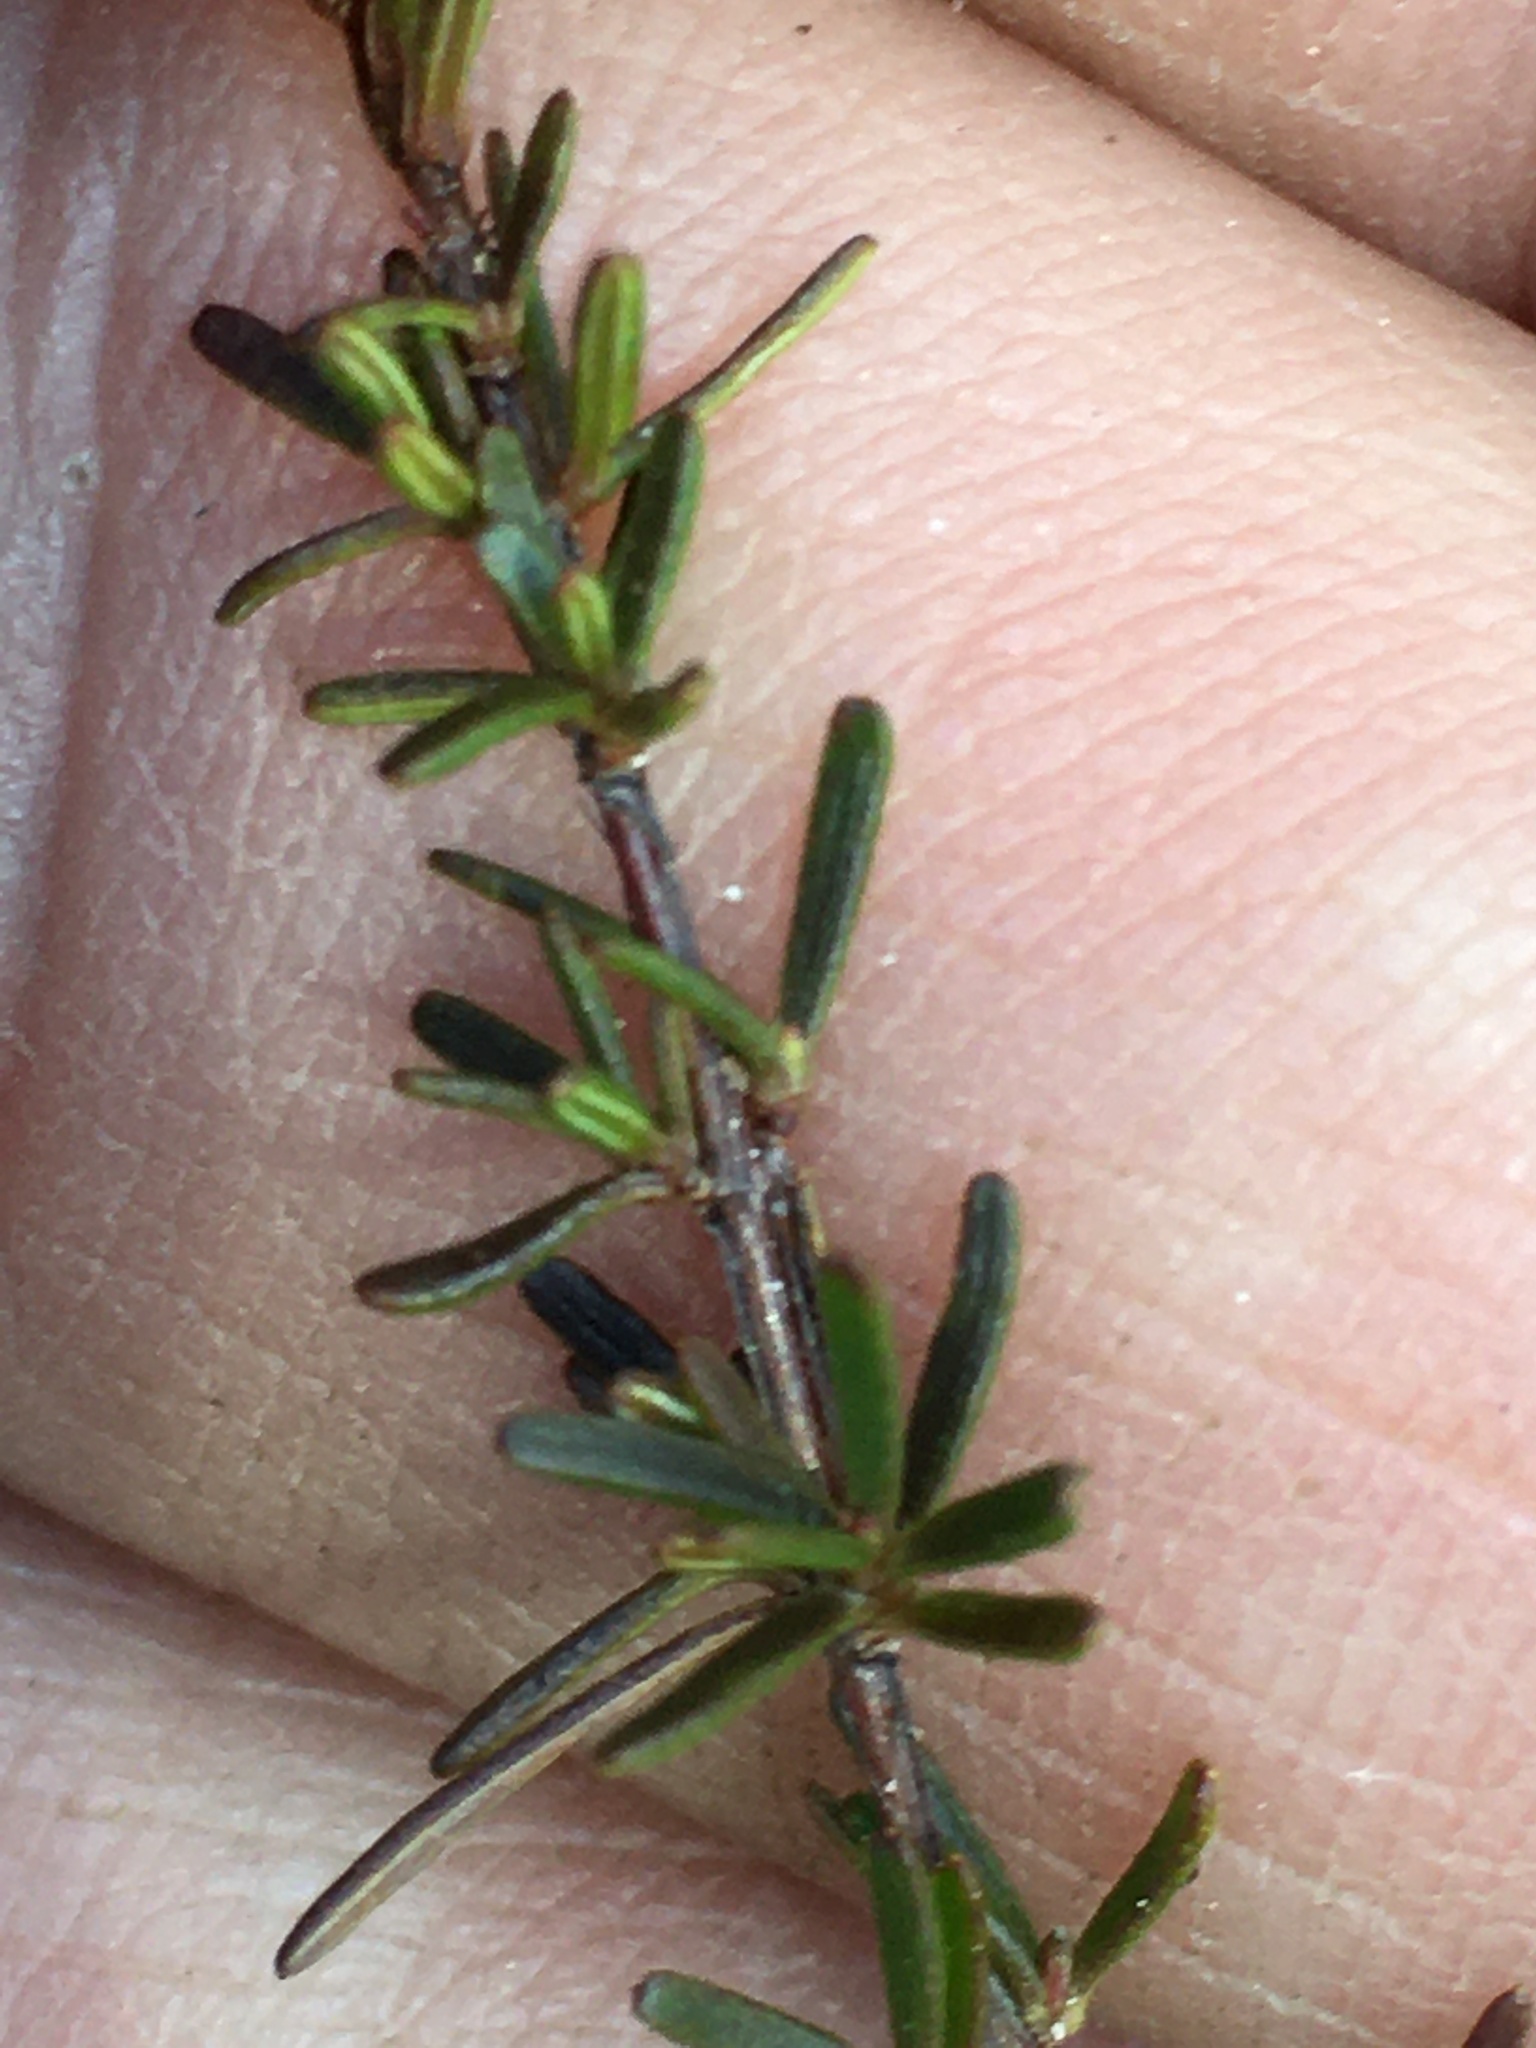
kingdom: Plantae
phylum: Tracheophyta
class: Magnoliopsida
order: Malpighiales
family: Hypericaceae
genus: Hypericum
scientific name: Hypericum lloydii
